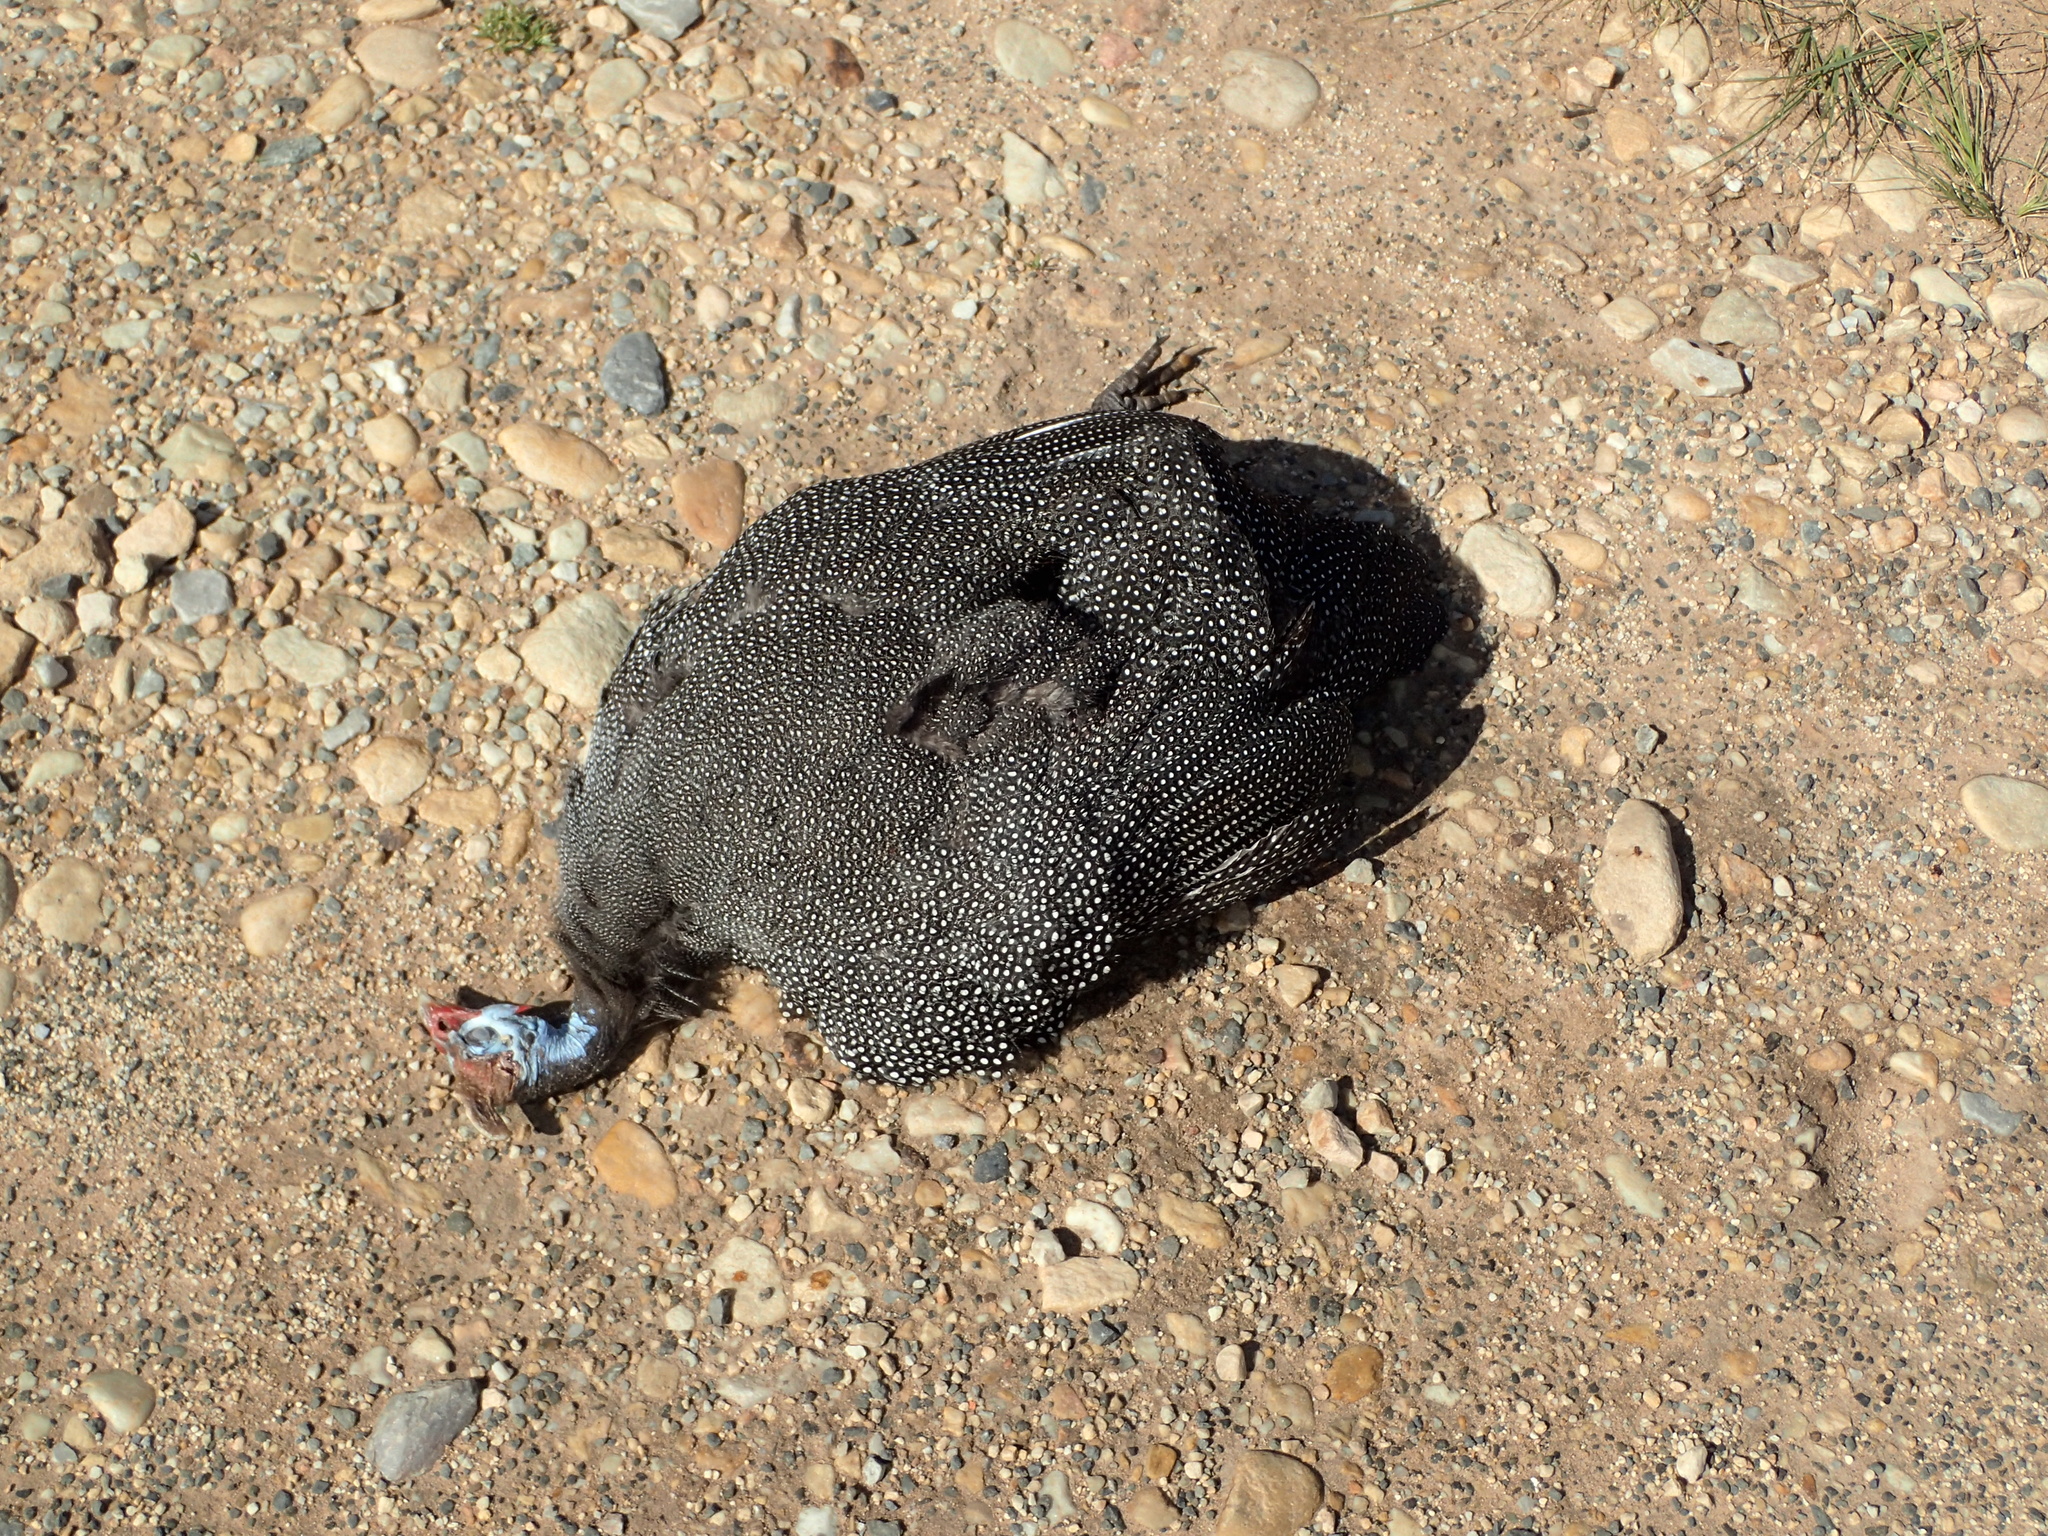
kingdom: Animalia
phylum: Chordata
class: Aves
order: Galliformes
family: Numididae
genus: Numida
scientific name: Numida meleagris
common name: Helmeted guineafowl
